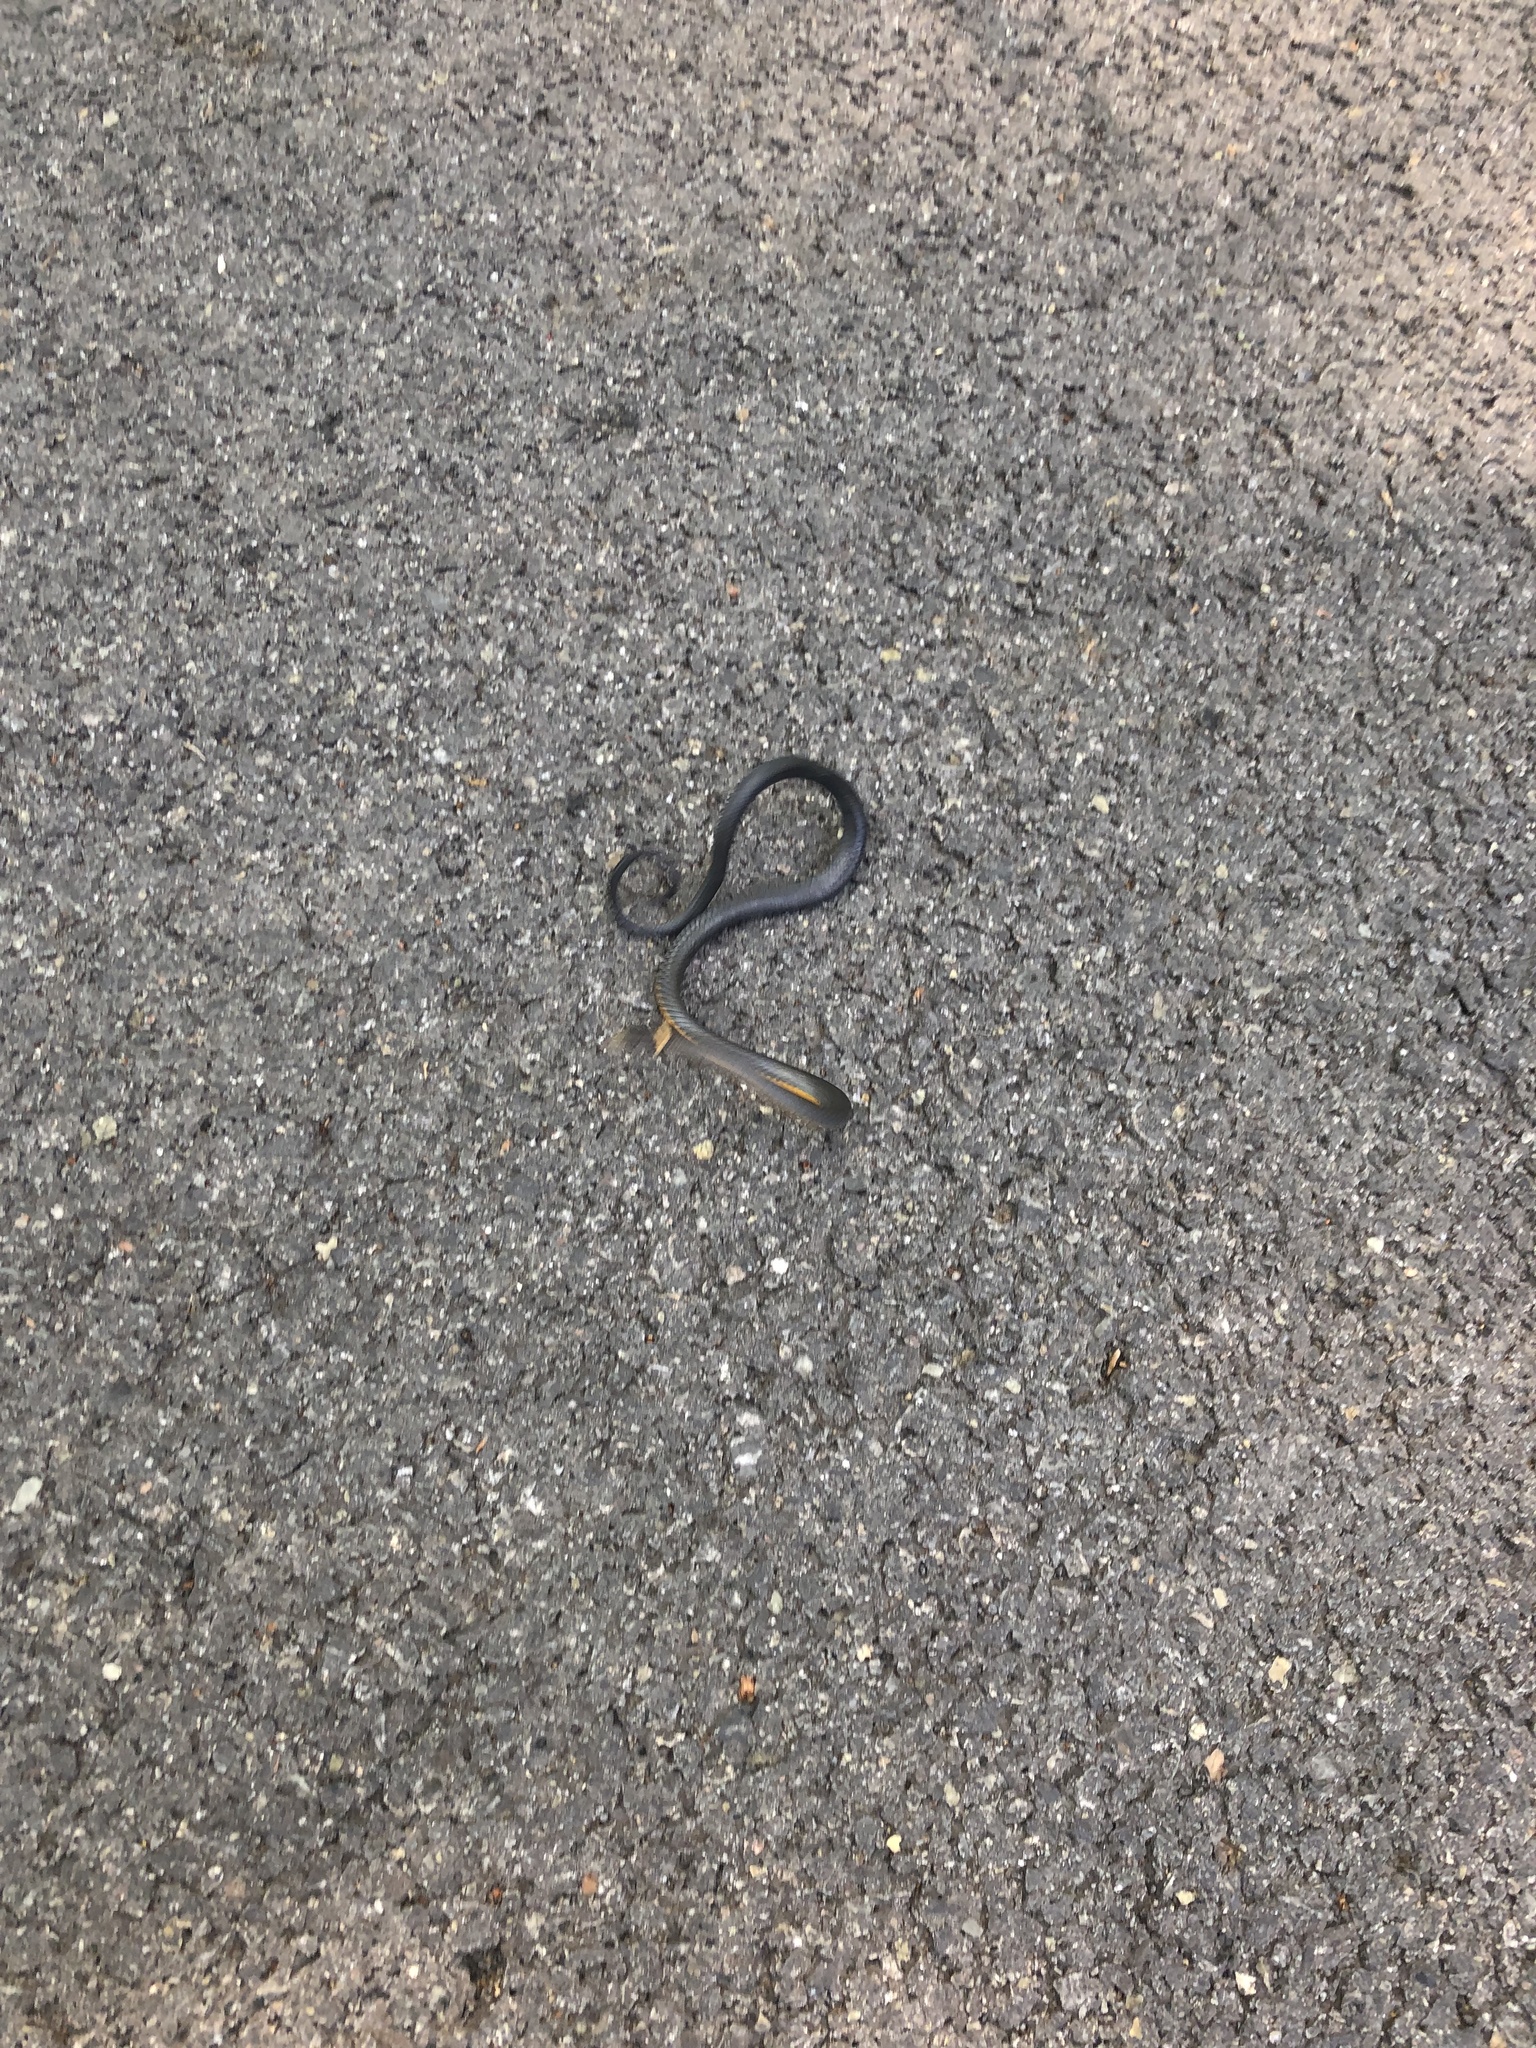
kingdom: Animalia
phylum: Chordata
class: Squamata
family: Colubridae
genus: Diadophis
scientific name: Diadophis punctatus
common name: Ringneck snake
